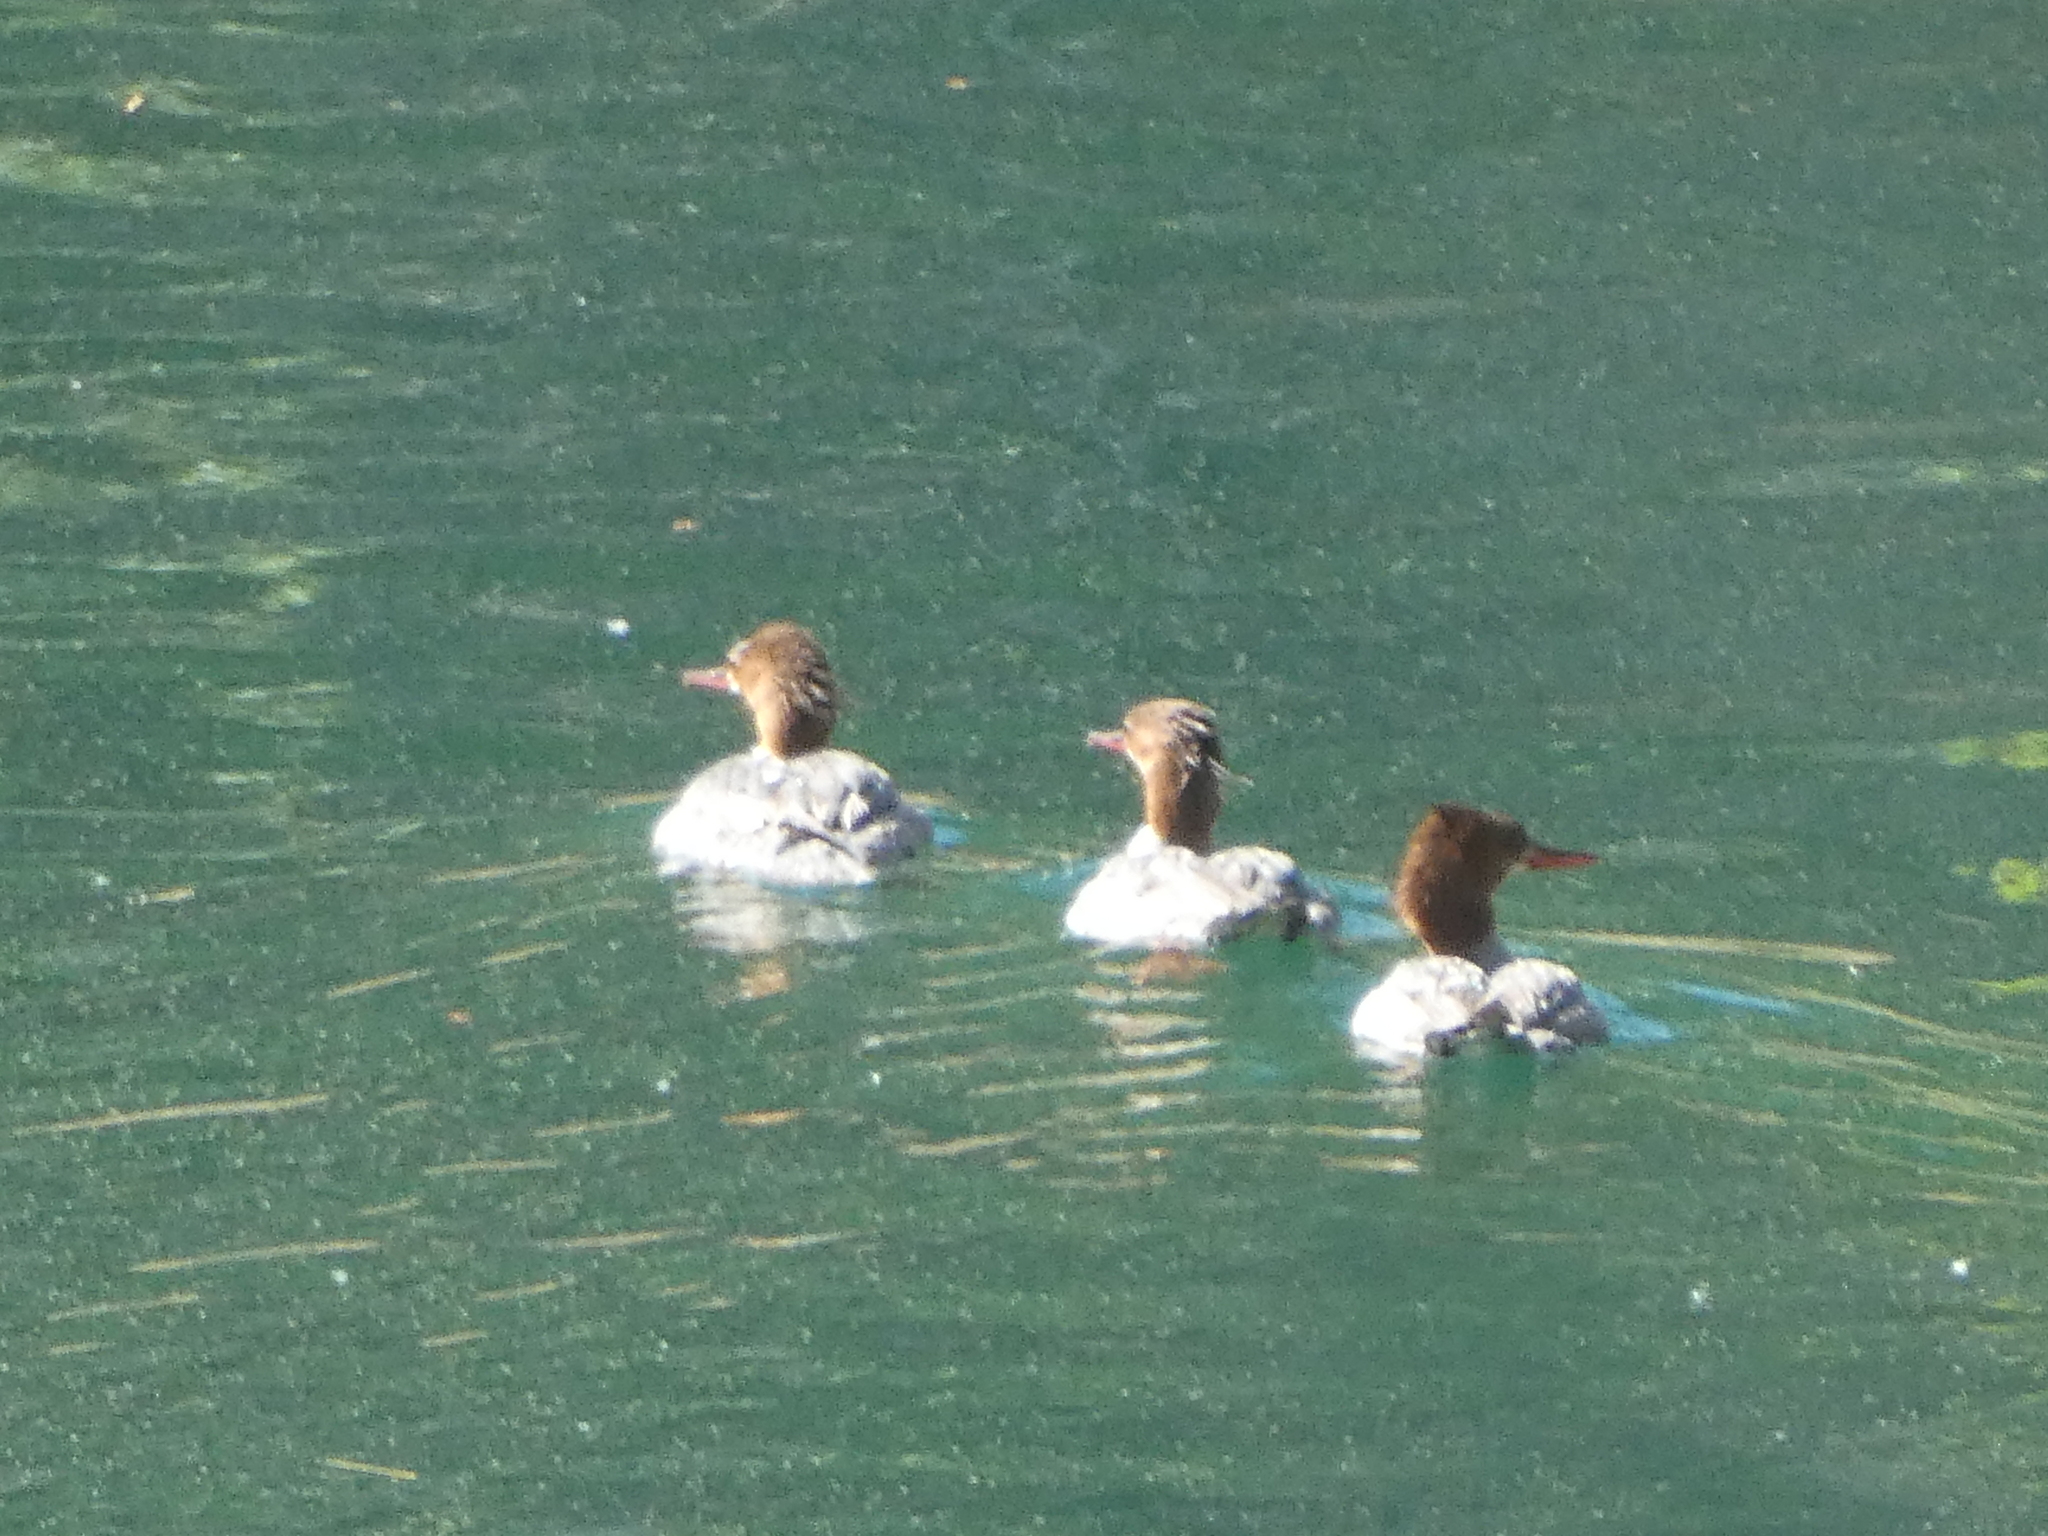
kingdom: Animalia
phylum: Chordata
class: Aves
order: Anseriformes
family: Anatidae
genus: Mergus
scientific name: Mergus merganser
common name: Common merganser
